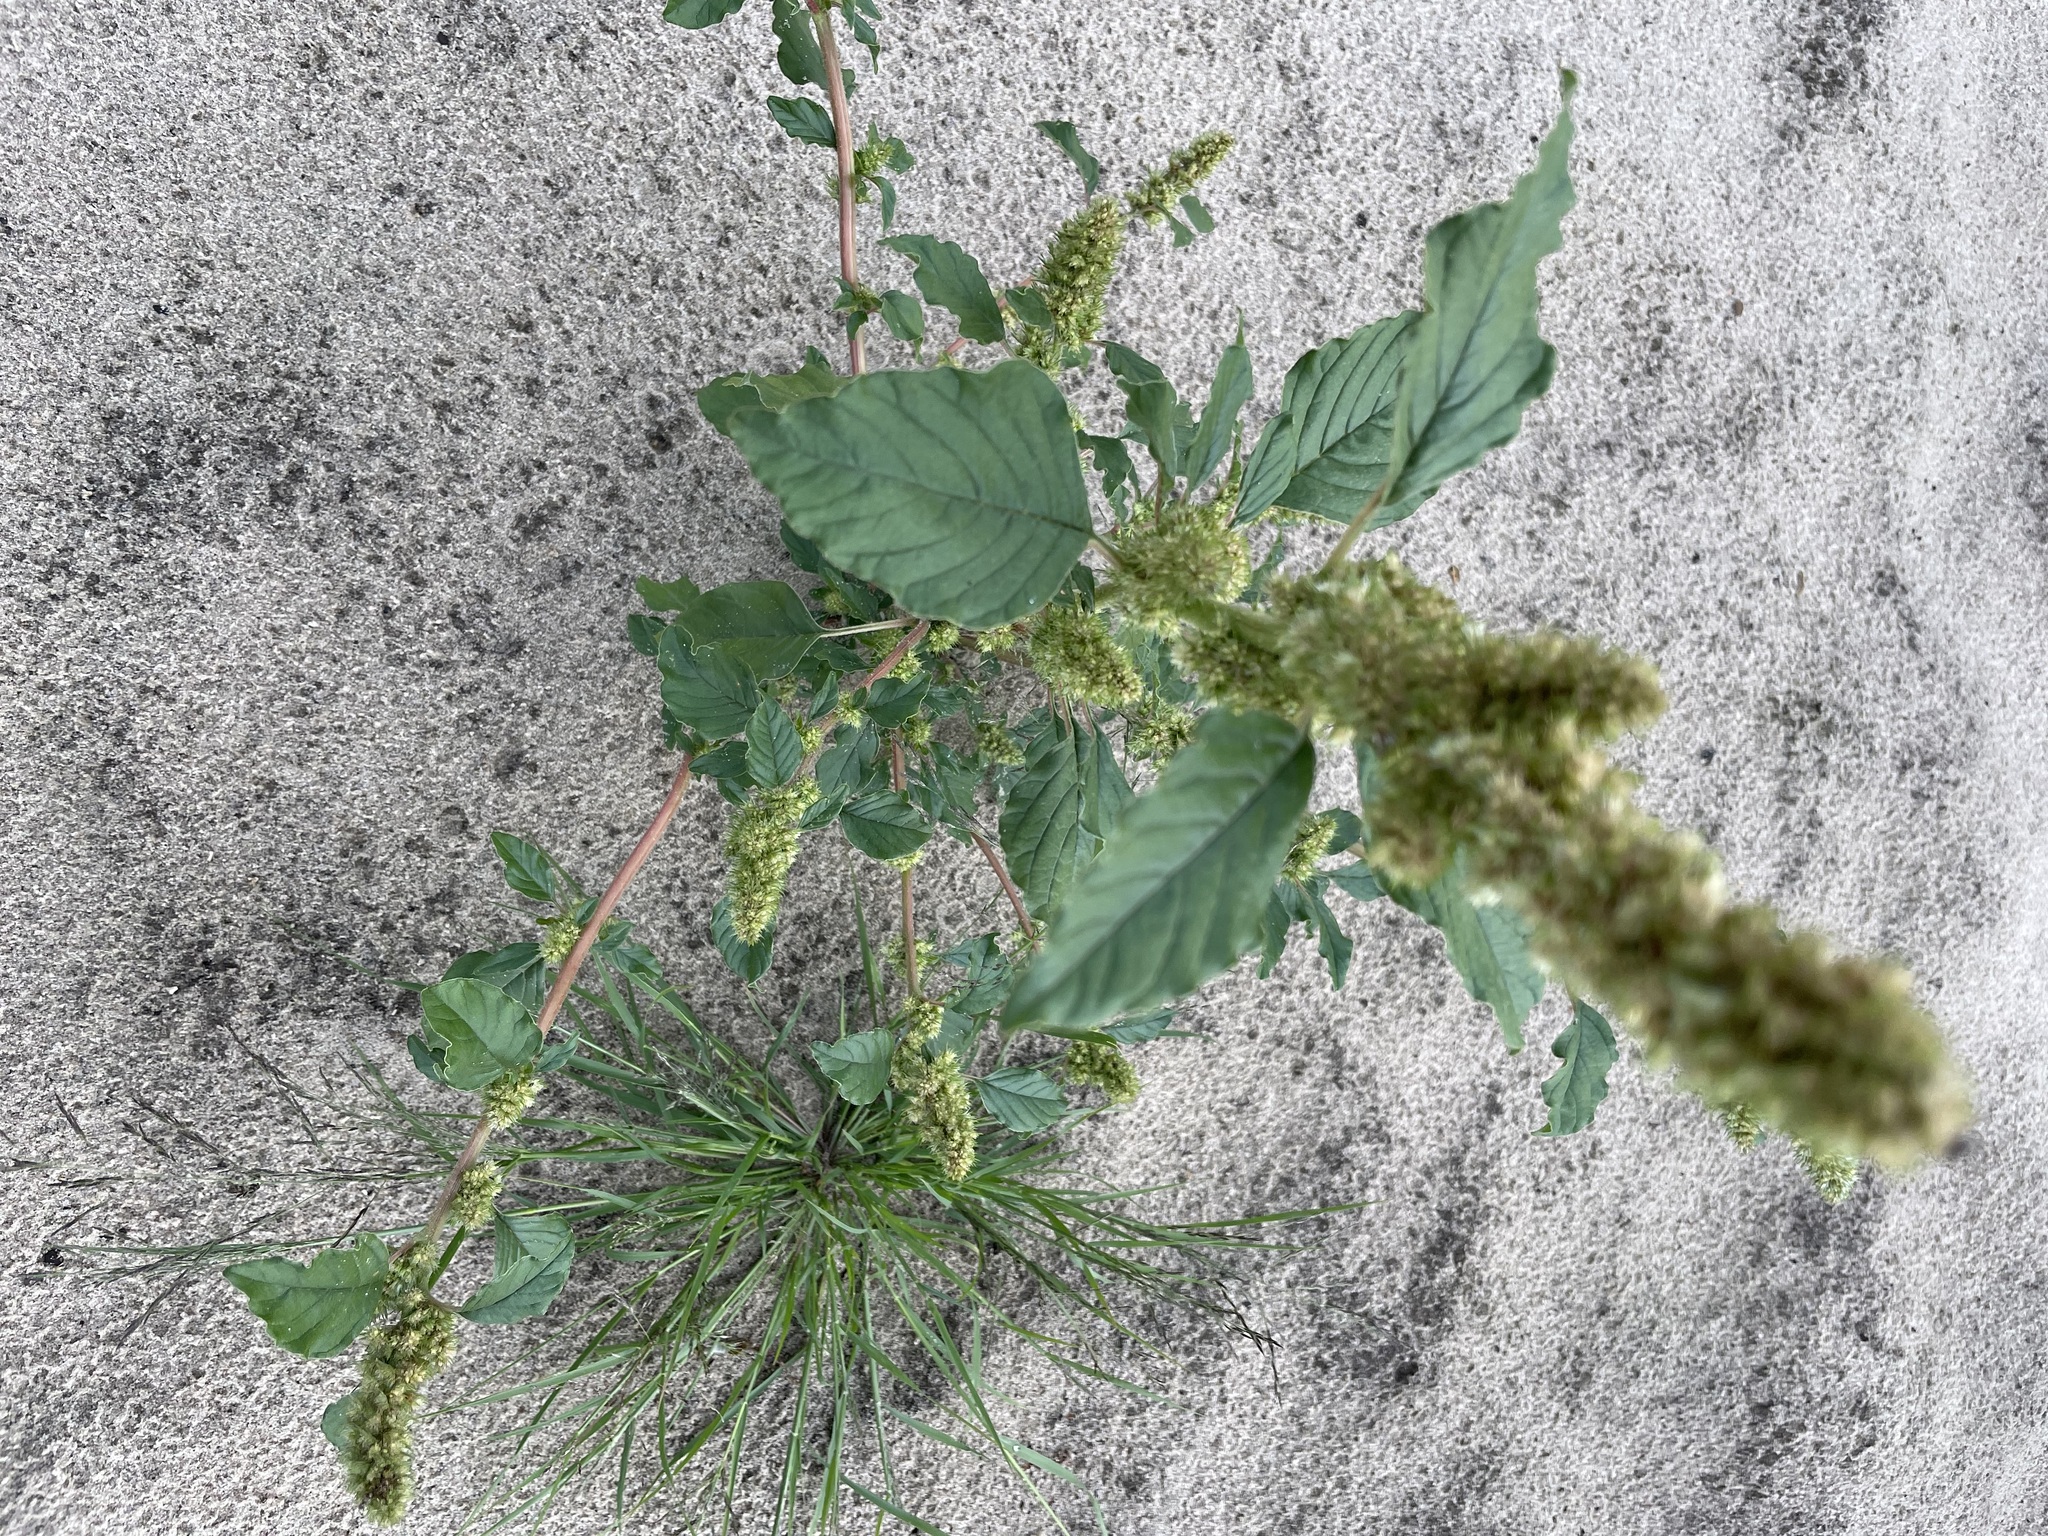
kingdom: Plantae
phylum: Tracheophyta
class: Magnoliopsida
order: Caryophyllales
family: Amaranthaceae
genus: Amaranthus
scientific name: Amaranthus retroflexus
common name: Redroot amaranth
